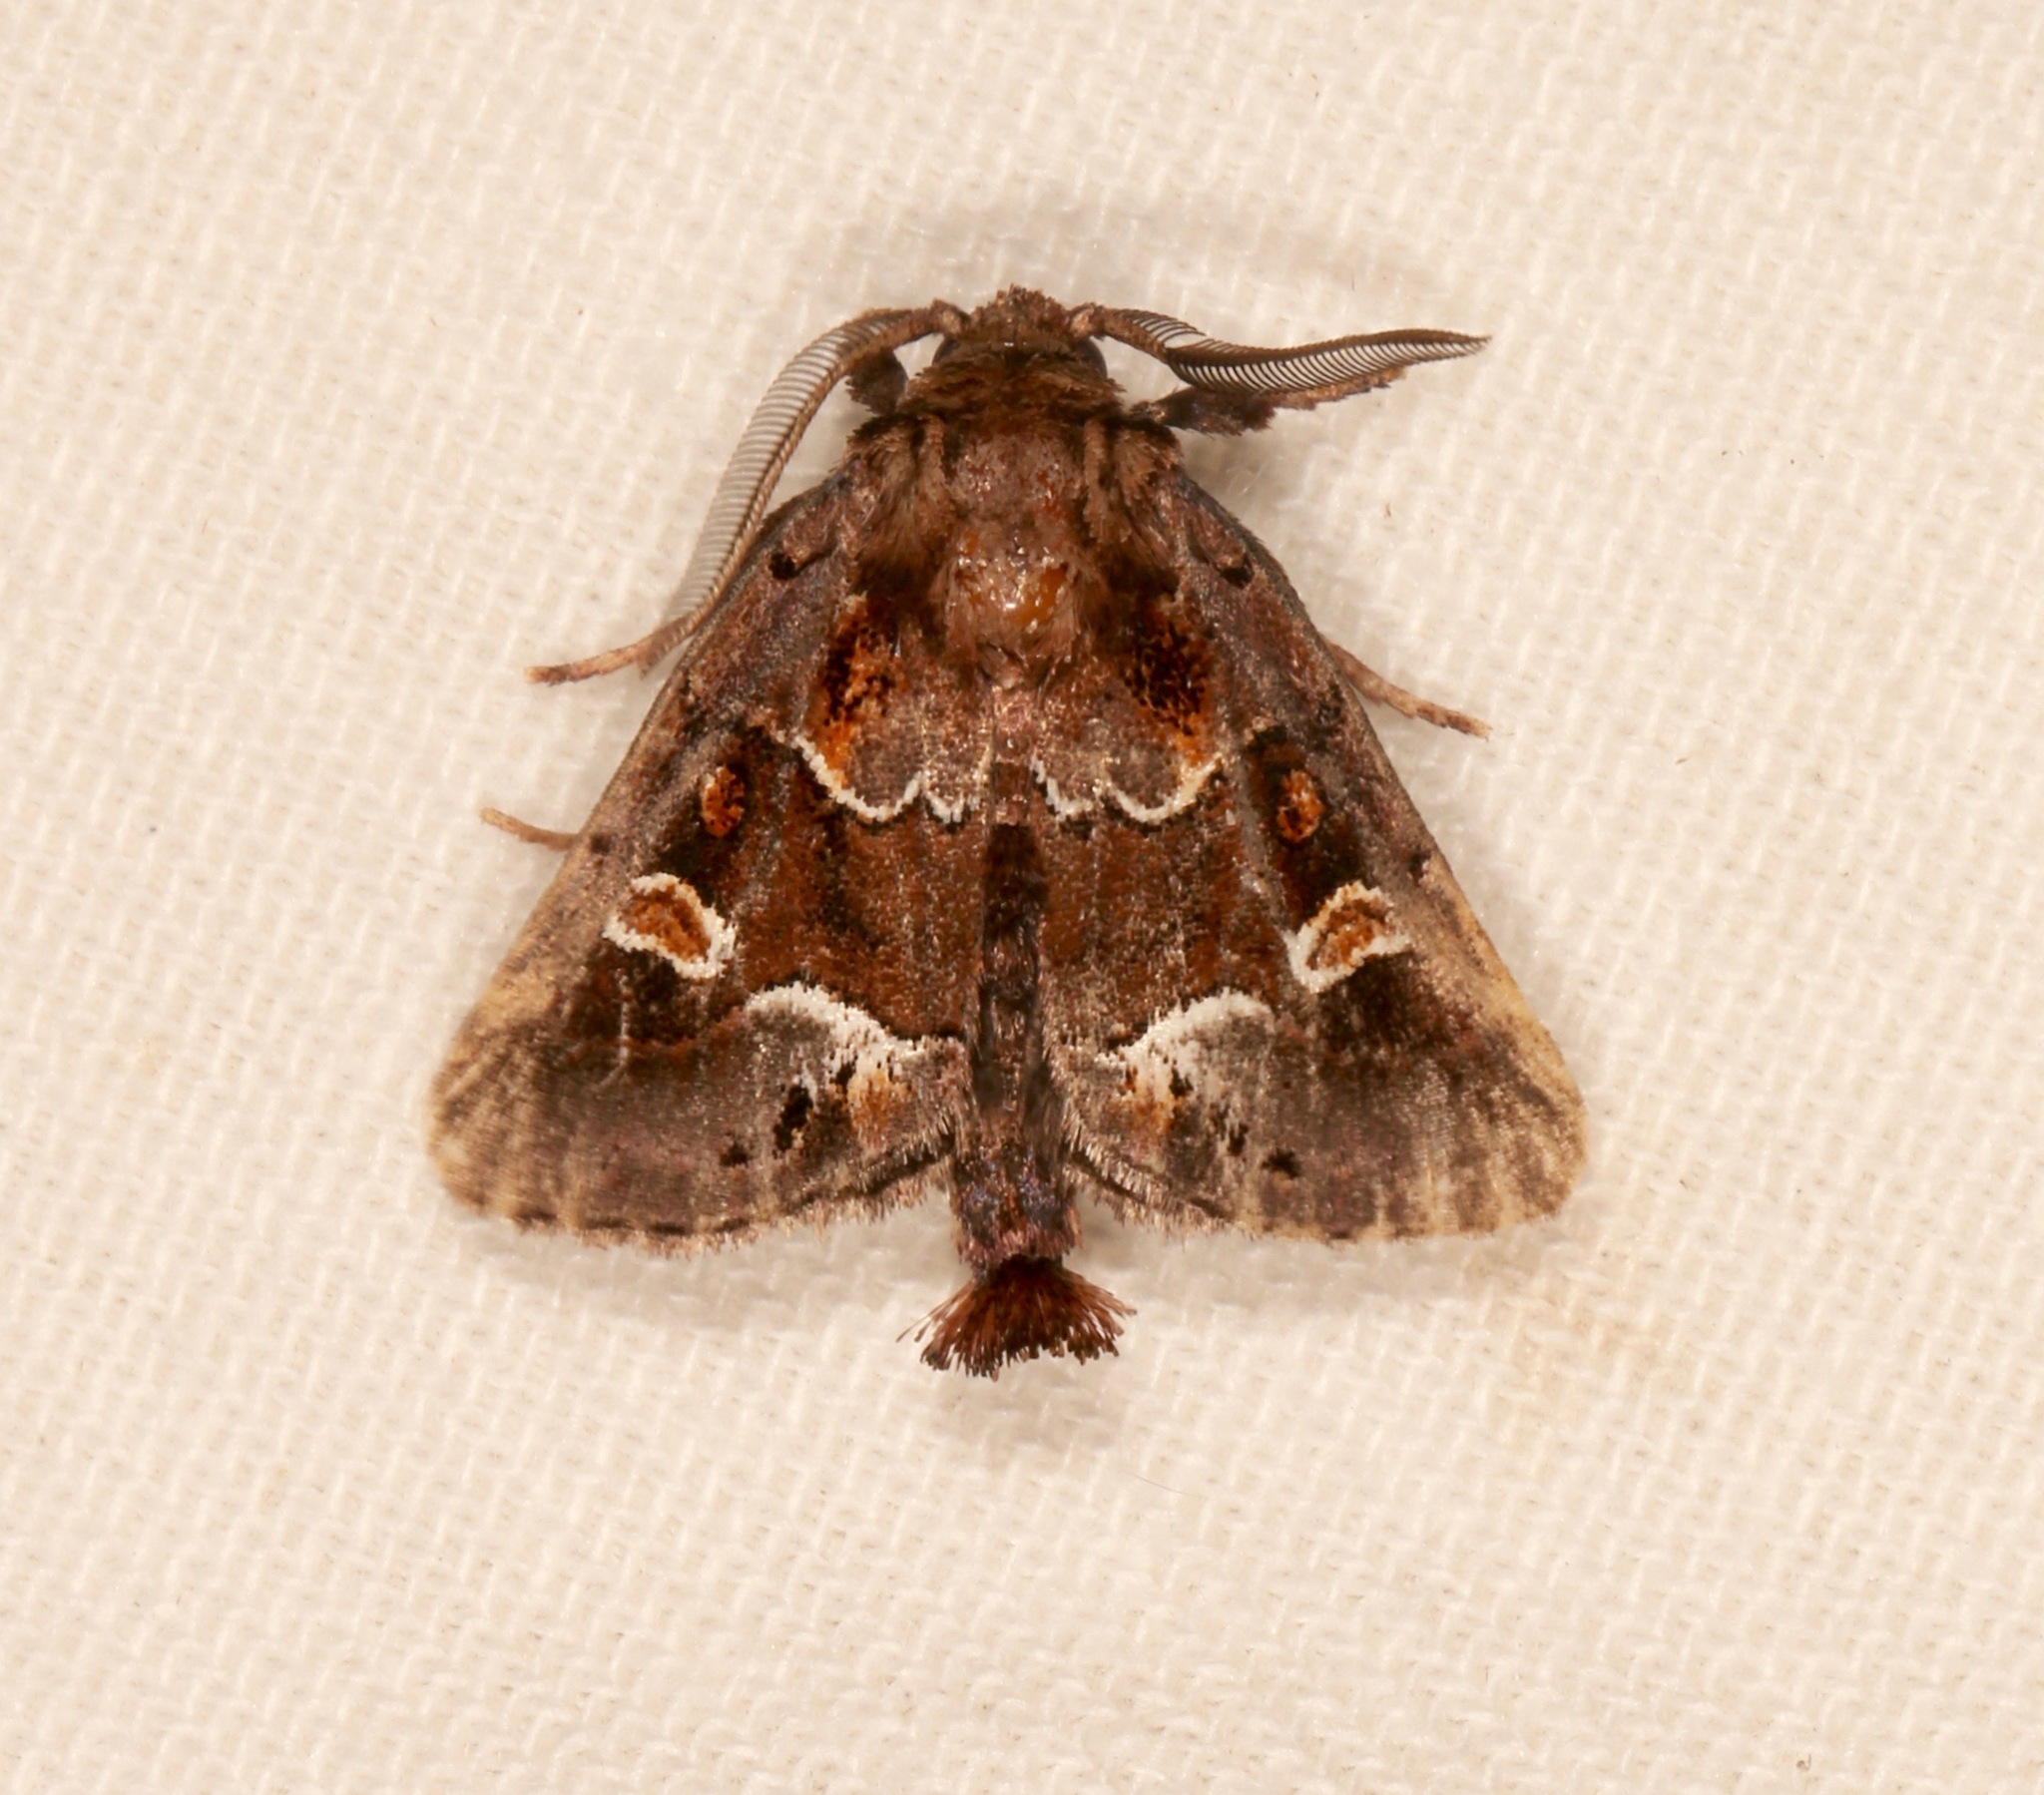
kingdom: Animalia
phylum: Arthropoda
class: Insecta
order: Lepidoptera
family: Noctuidae
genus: Acherdoa
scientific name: Acherdoa ferraria
